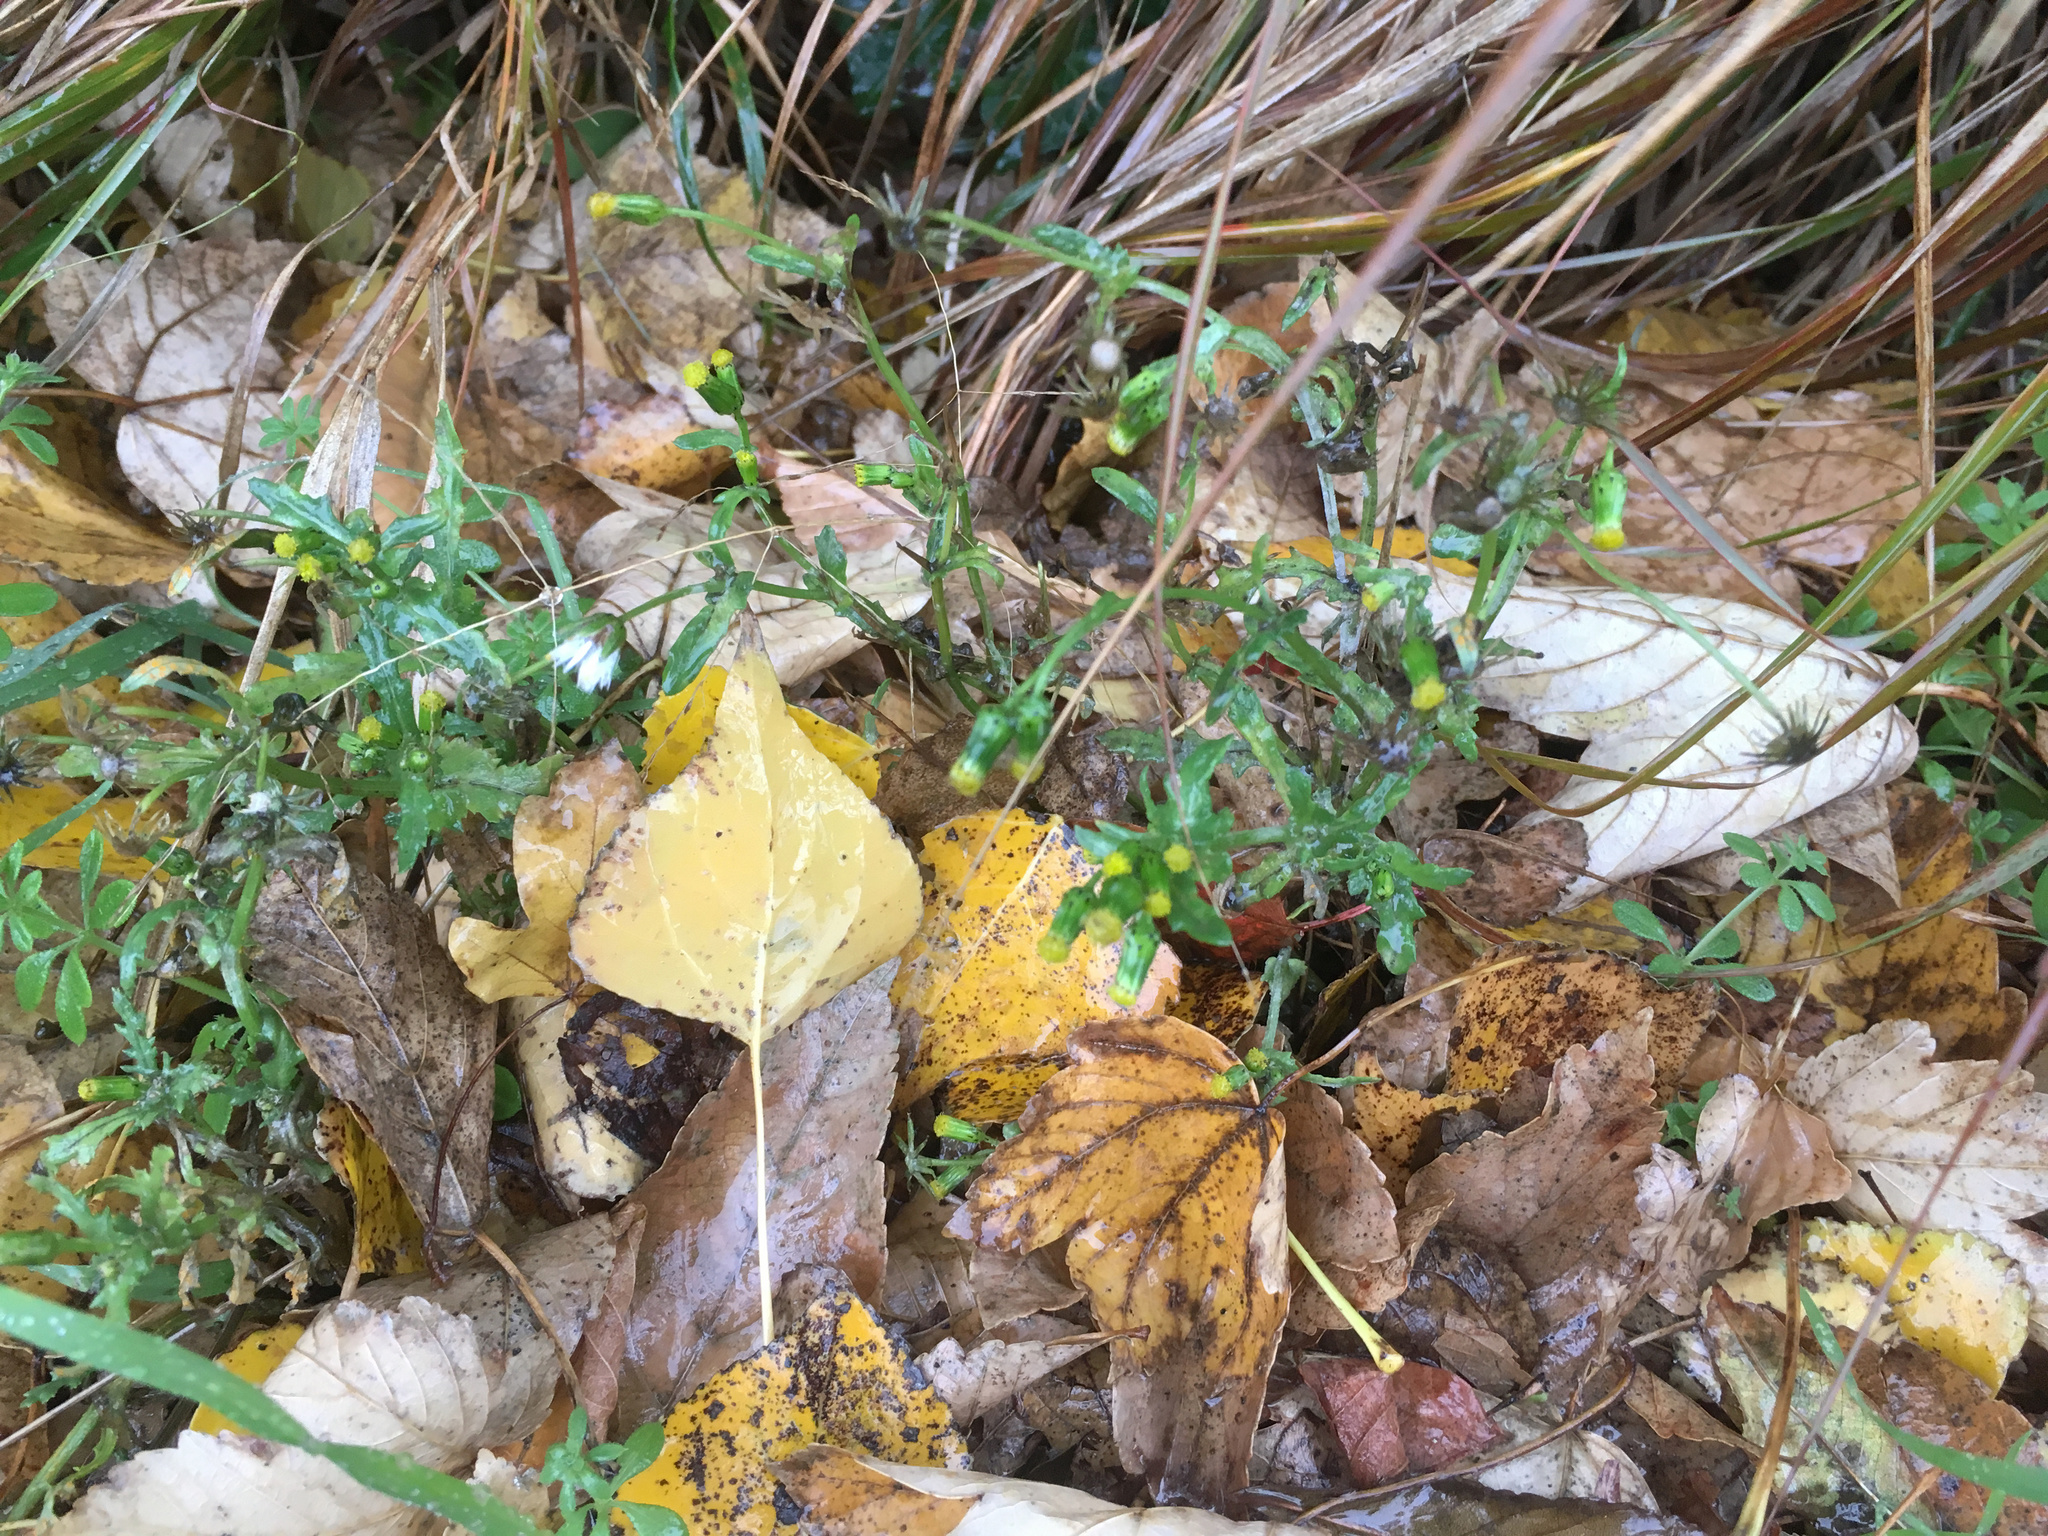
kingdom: Plantae
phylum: Tracheophyta
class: Magnoliopsida
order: Asterales
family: Asteraceae
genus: Senecio
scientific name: Senecio vulgaris
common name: Old-man-in-the-spring
